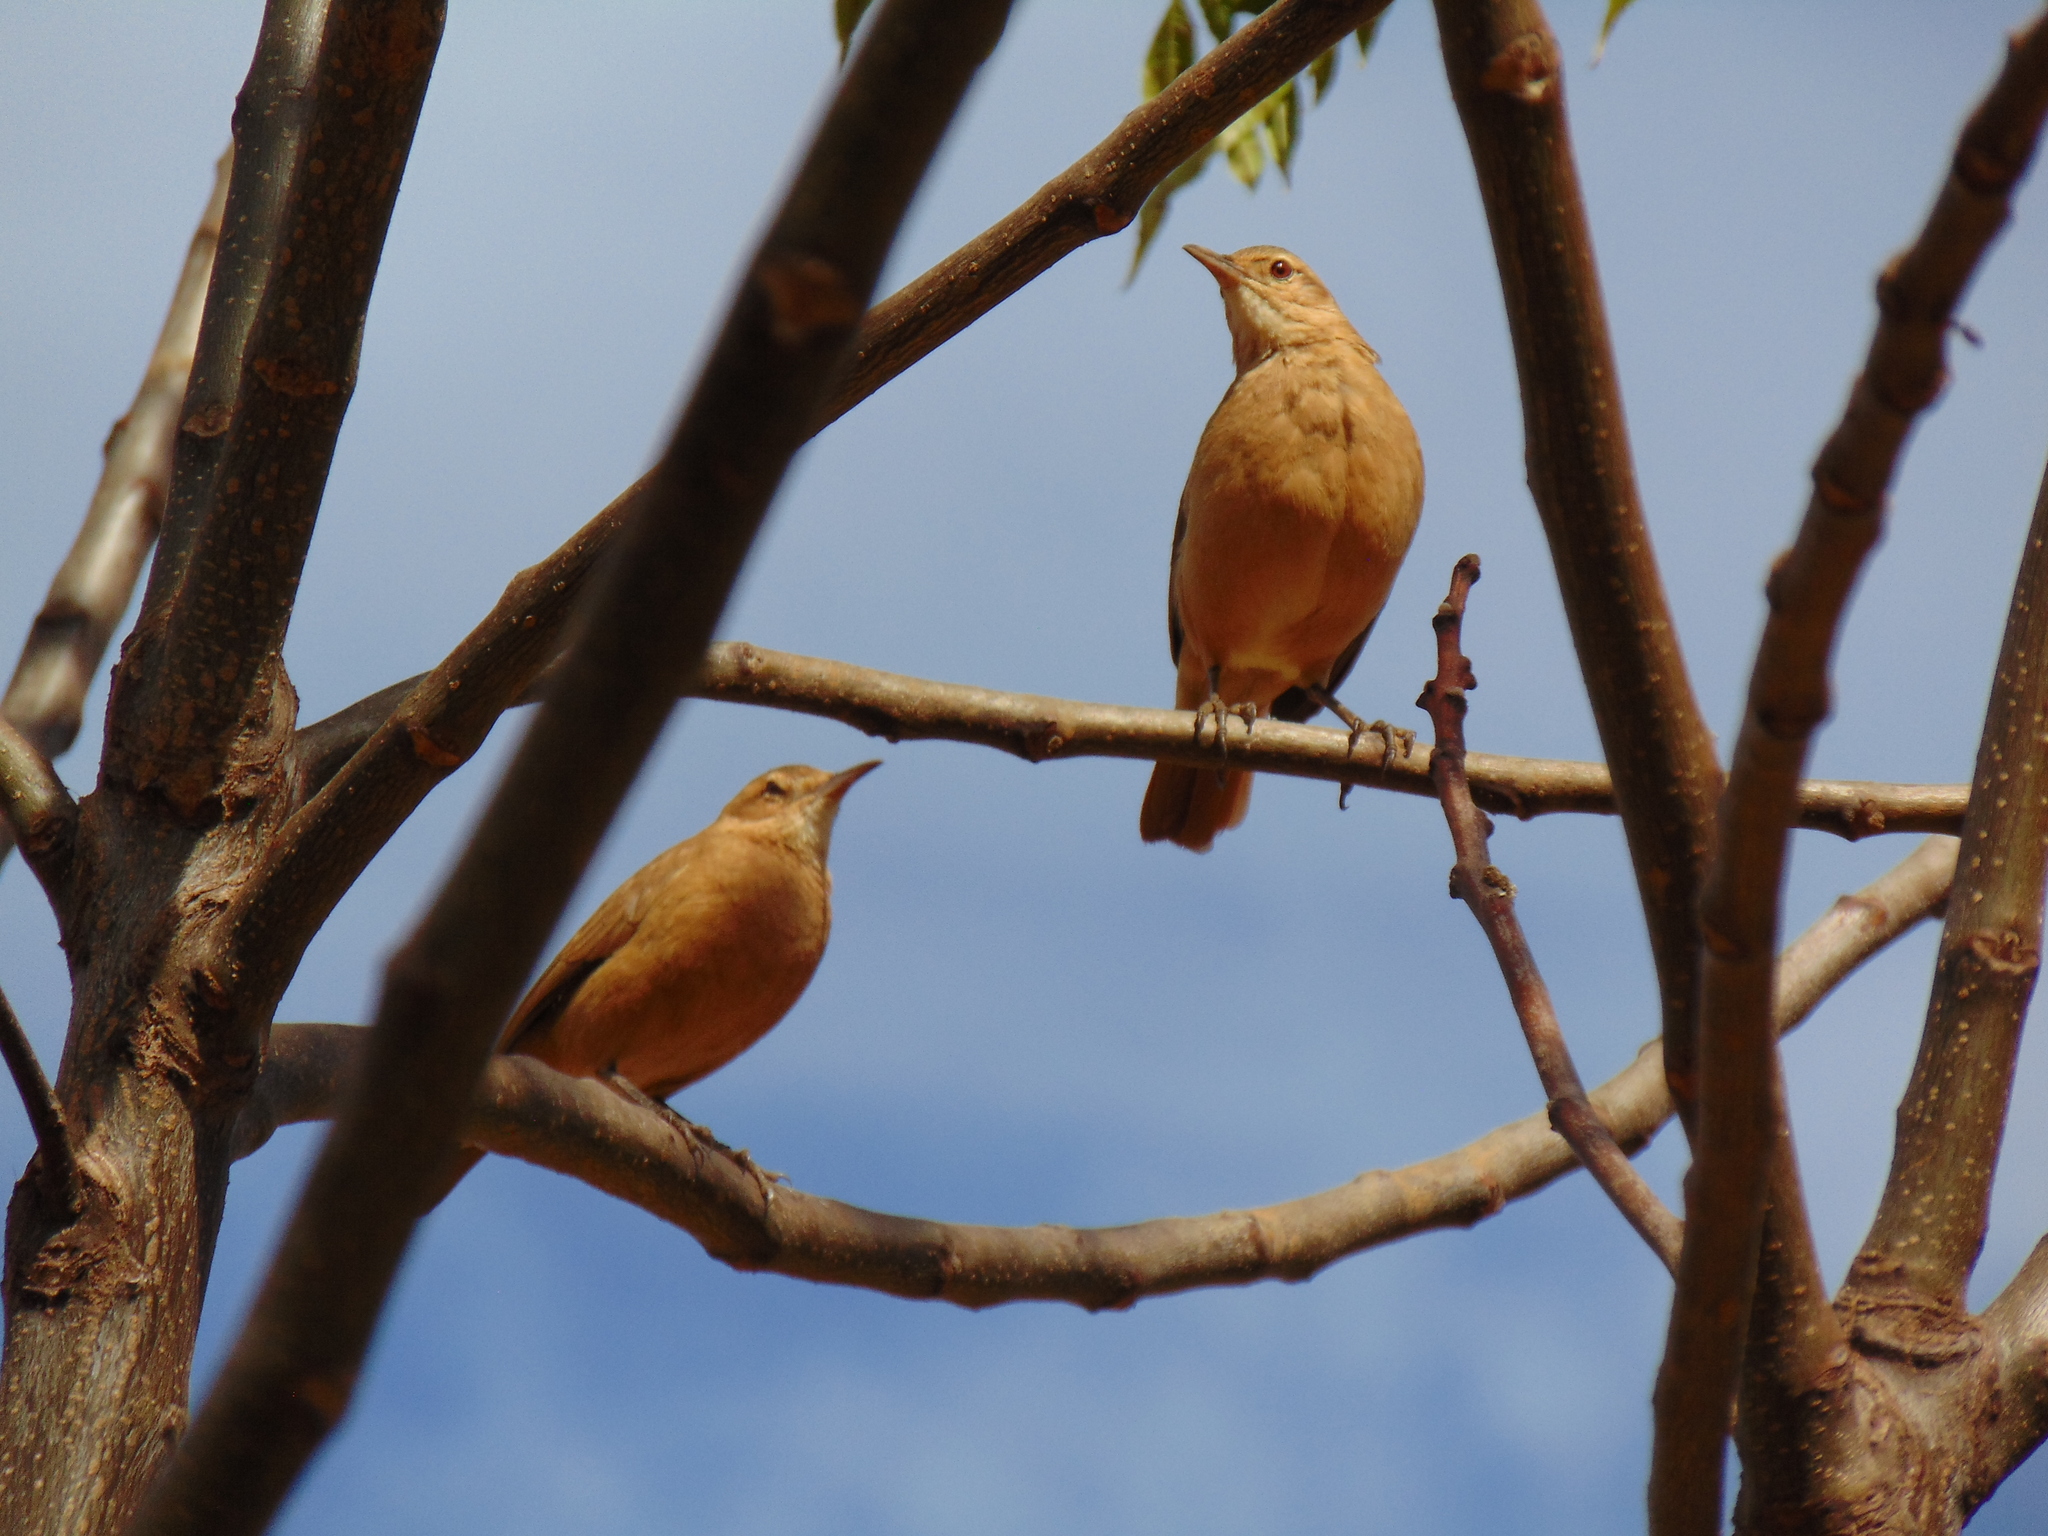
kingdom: Animalia
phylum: Chordata
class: Aves
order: Passeriformes
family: Furnariidae
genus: Furnarius
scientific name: Furnarius rufus
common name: Rufous hornero
